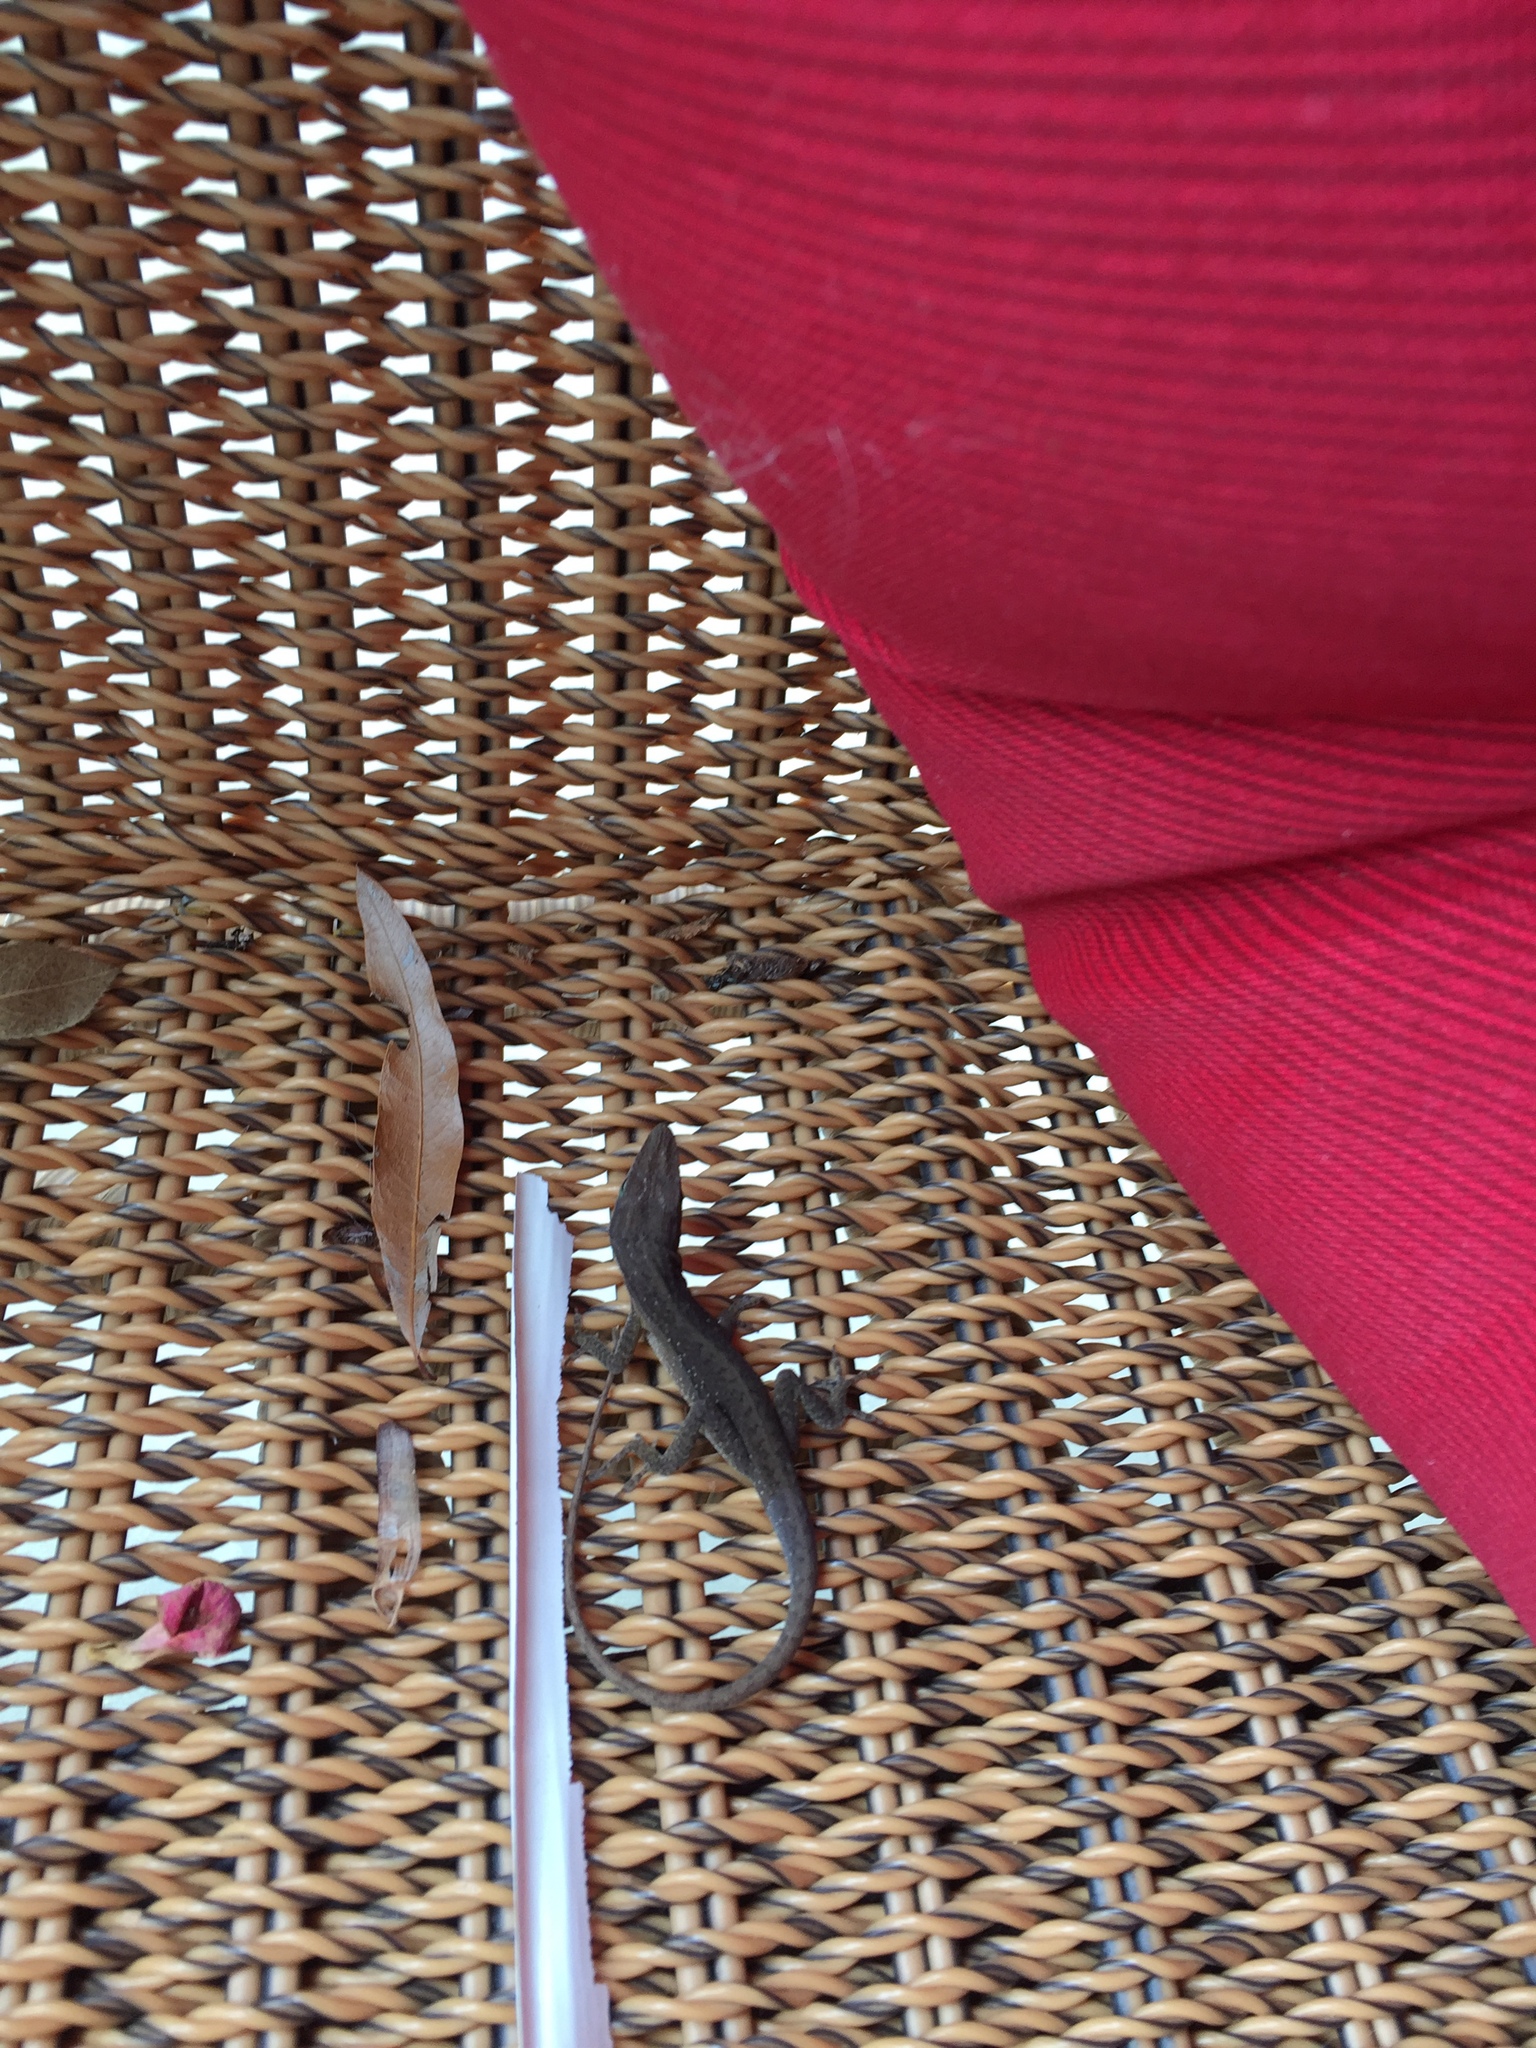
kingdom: Animalia
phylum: Chordata
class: Squamata
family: Dactyloidae
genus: Anolis
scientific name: Anolis carolinensis
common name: Green anole
